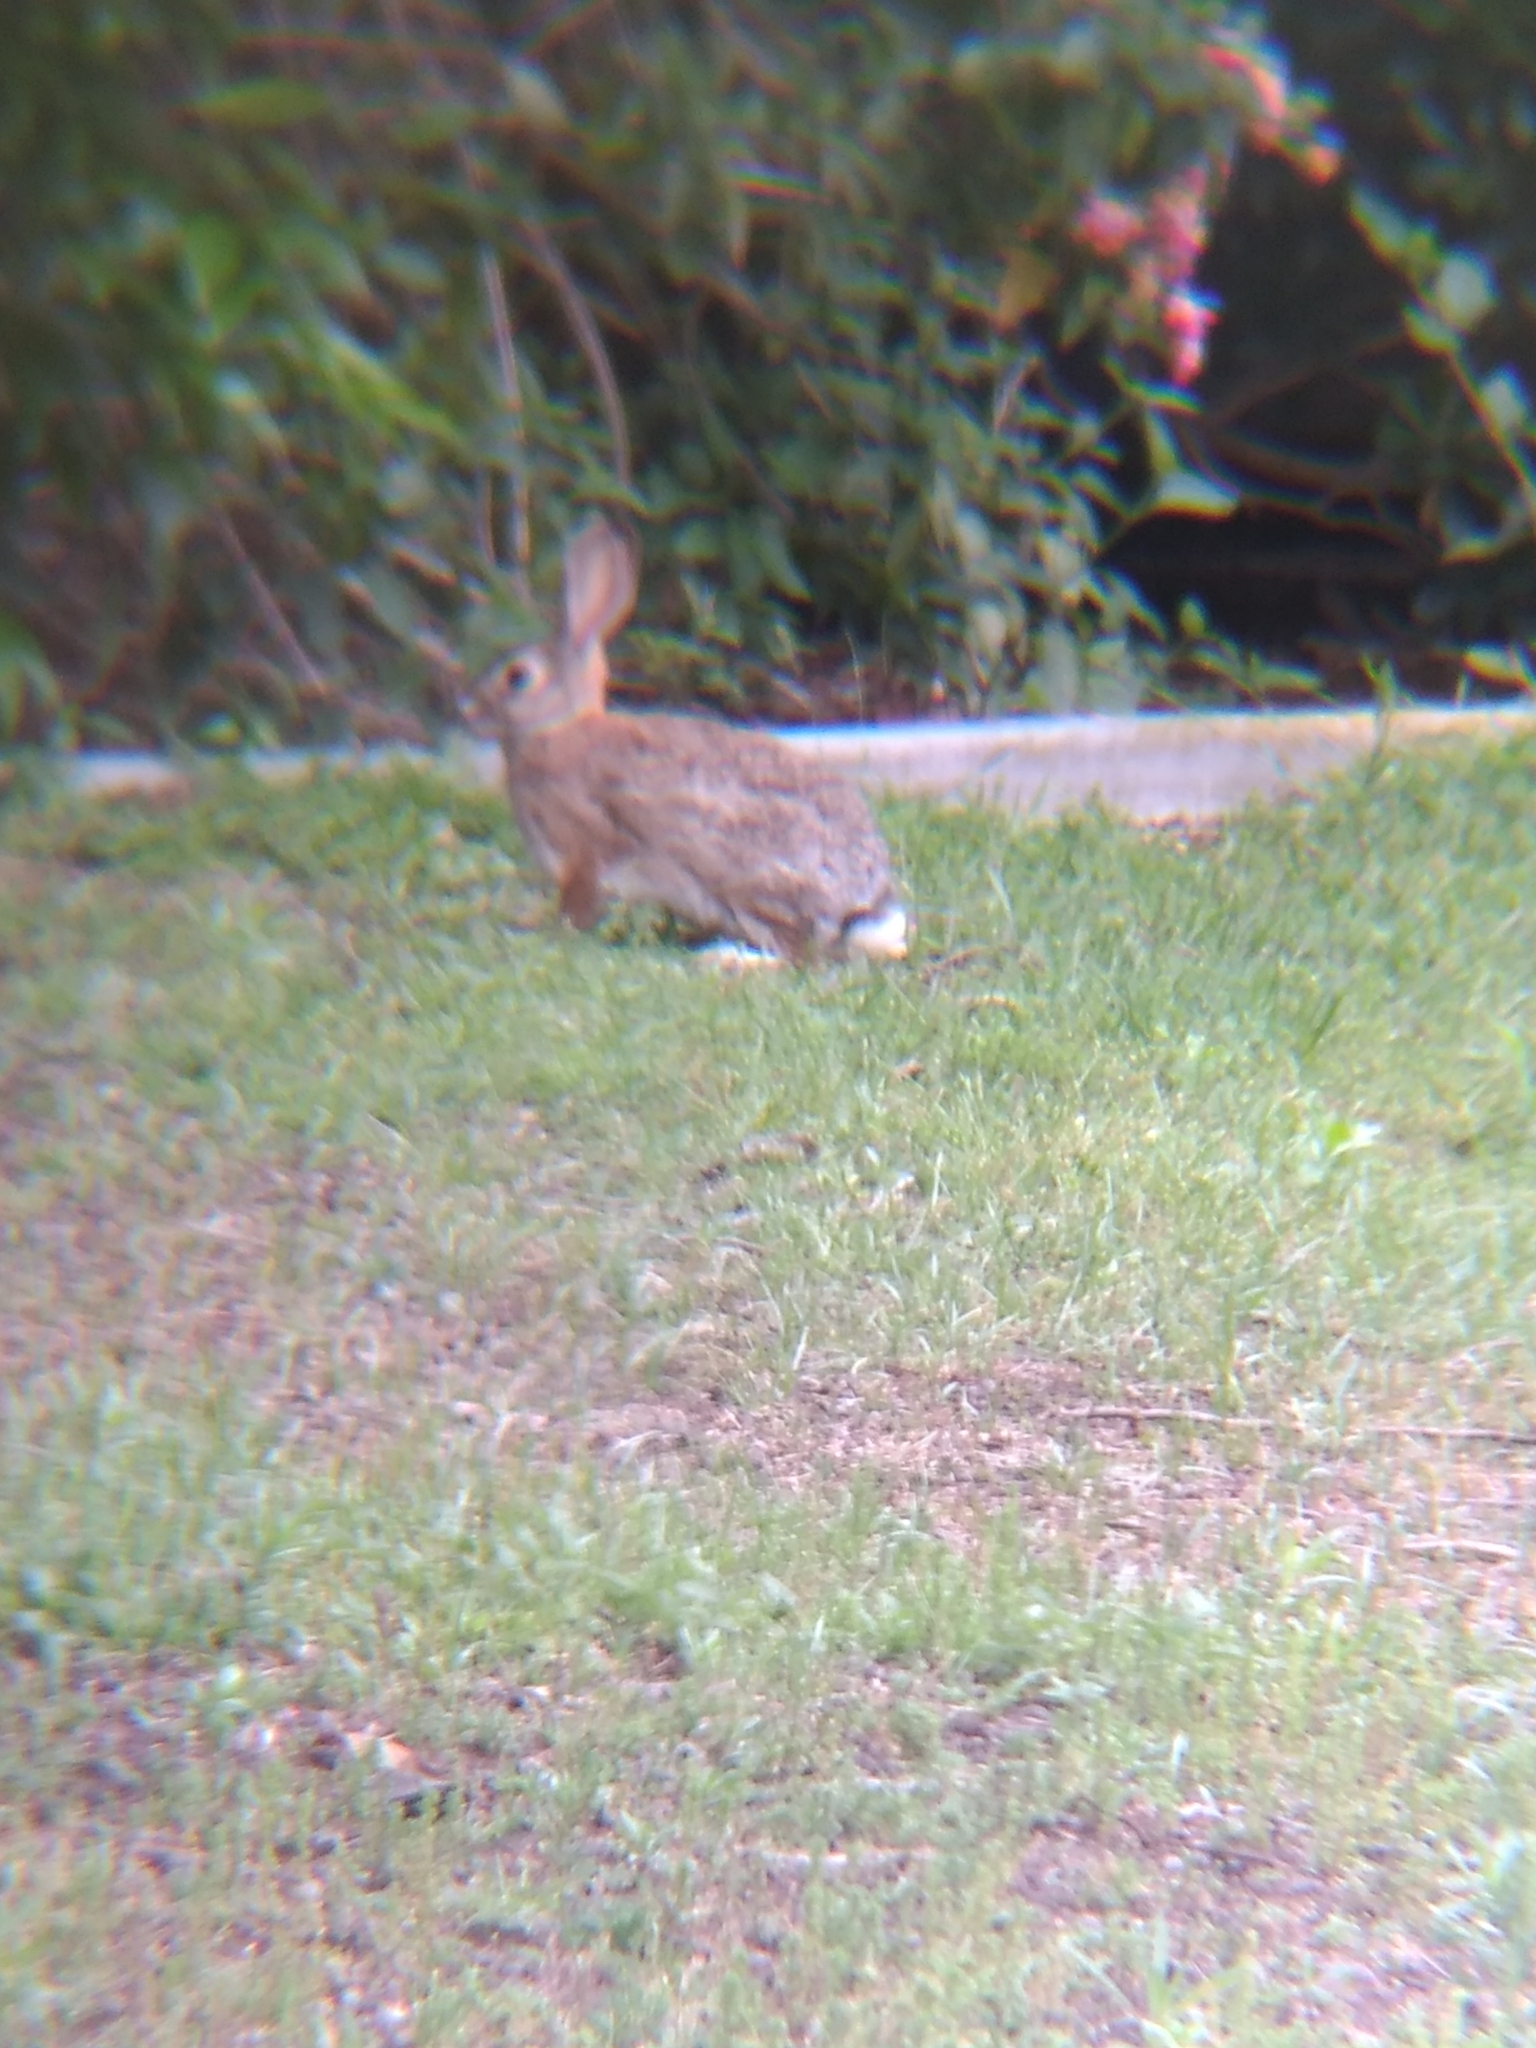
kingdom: Animalia
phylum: Chordata
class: Mammalia
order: Lagomorpha
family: Leporidae
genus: Sylvilagus
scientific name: Sylvilagus audubonii
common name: Desert cottontail
